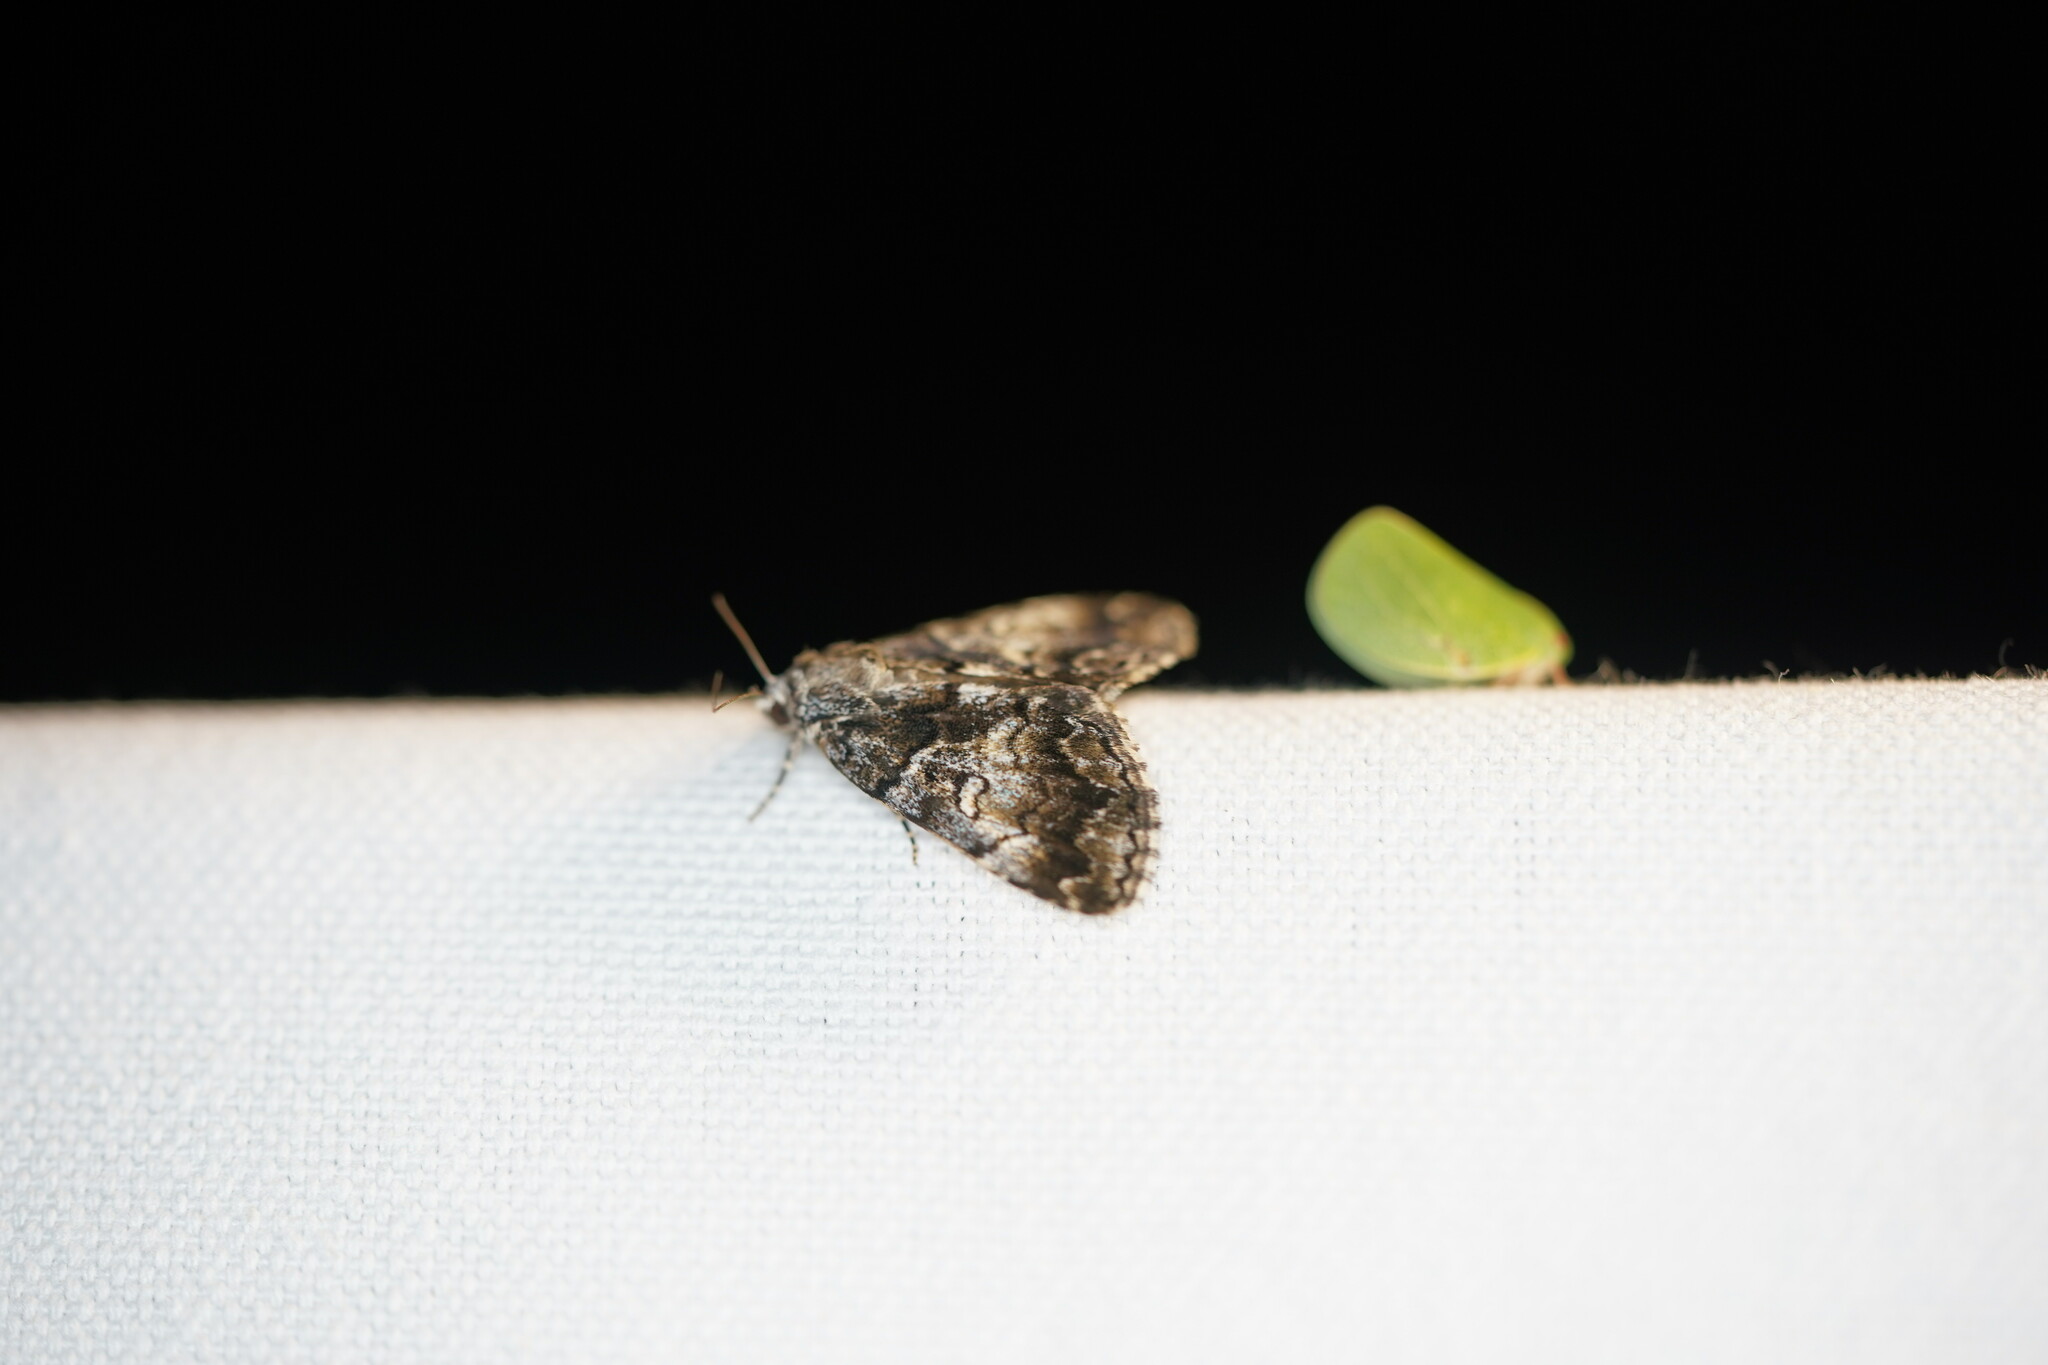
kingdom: Animalia
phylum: Arthropoda
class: Insecta
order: Lepidoptera
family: Erebidae
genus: Allotria
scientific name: Allotria elonympha
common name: False underwing
